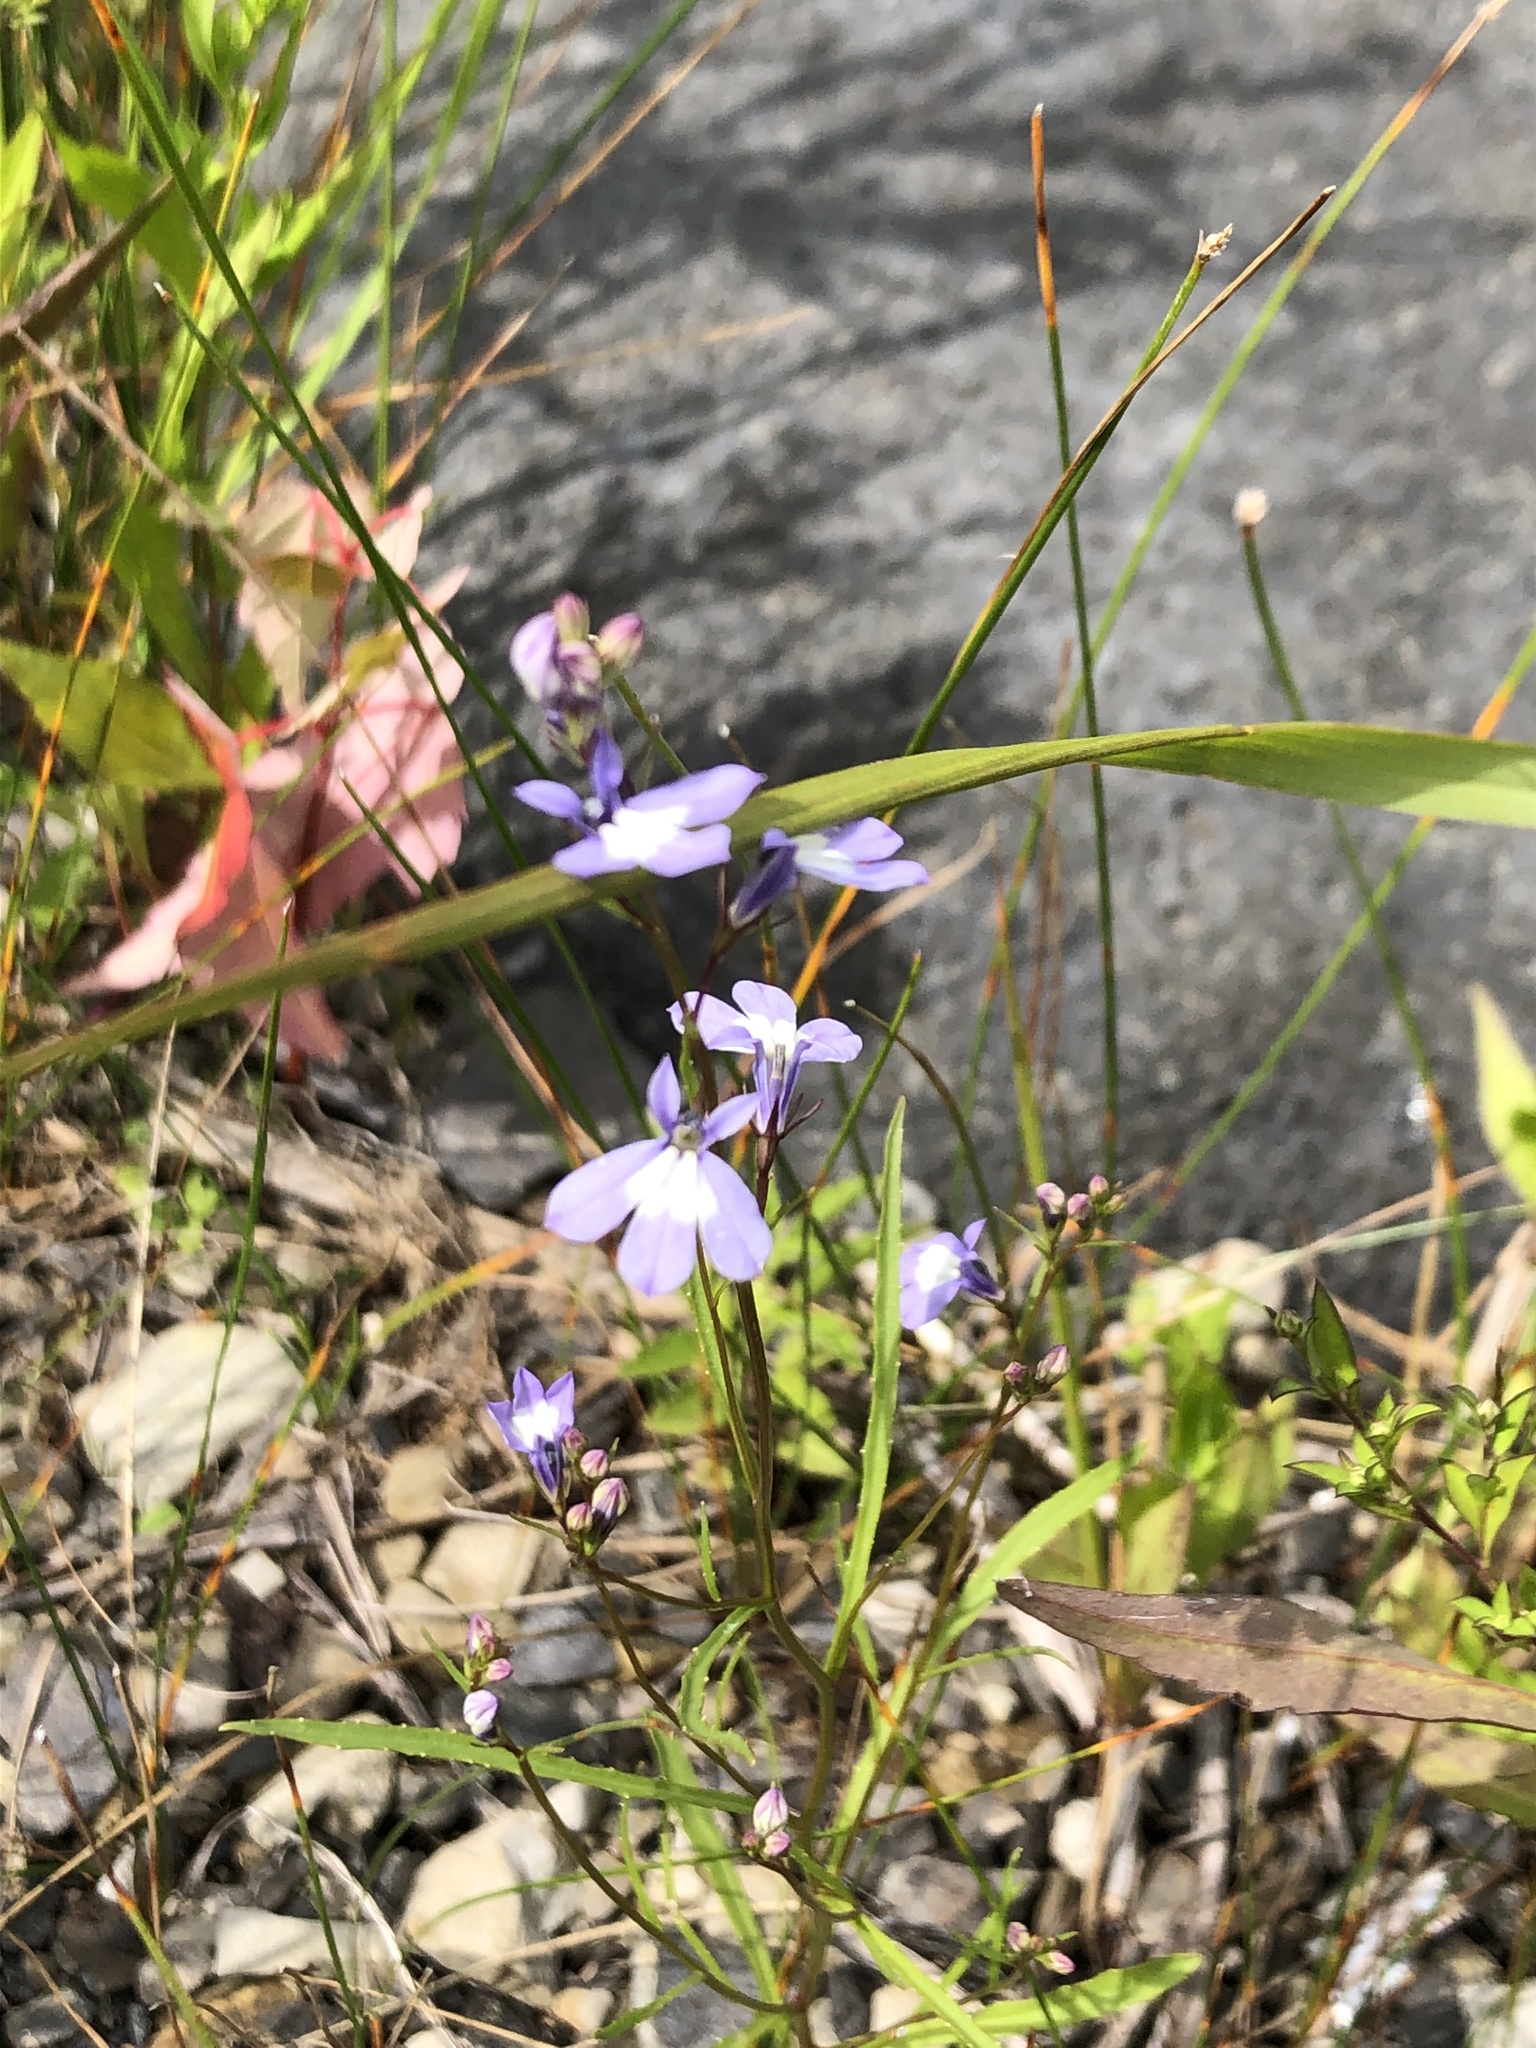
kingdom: Plantae
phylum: Tracheophyta
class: Magnoliopsida
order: Asterales
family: Campanulaceae
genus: Lobelia
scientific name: Lobelia kalmii
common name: Kalm's lobelia
